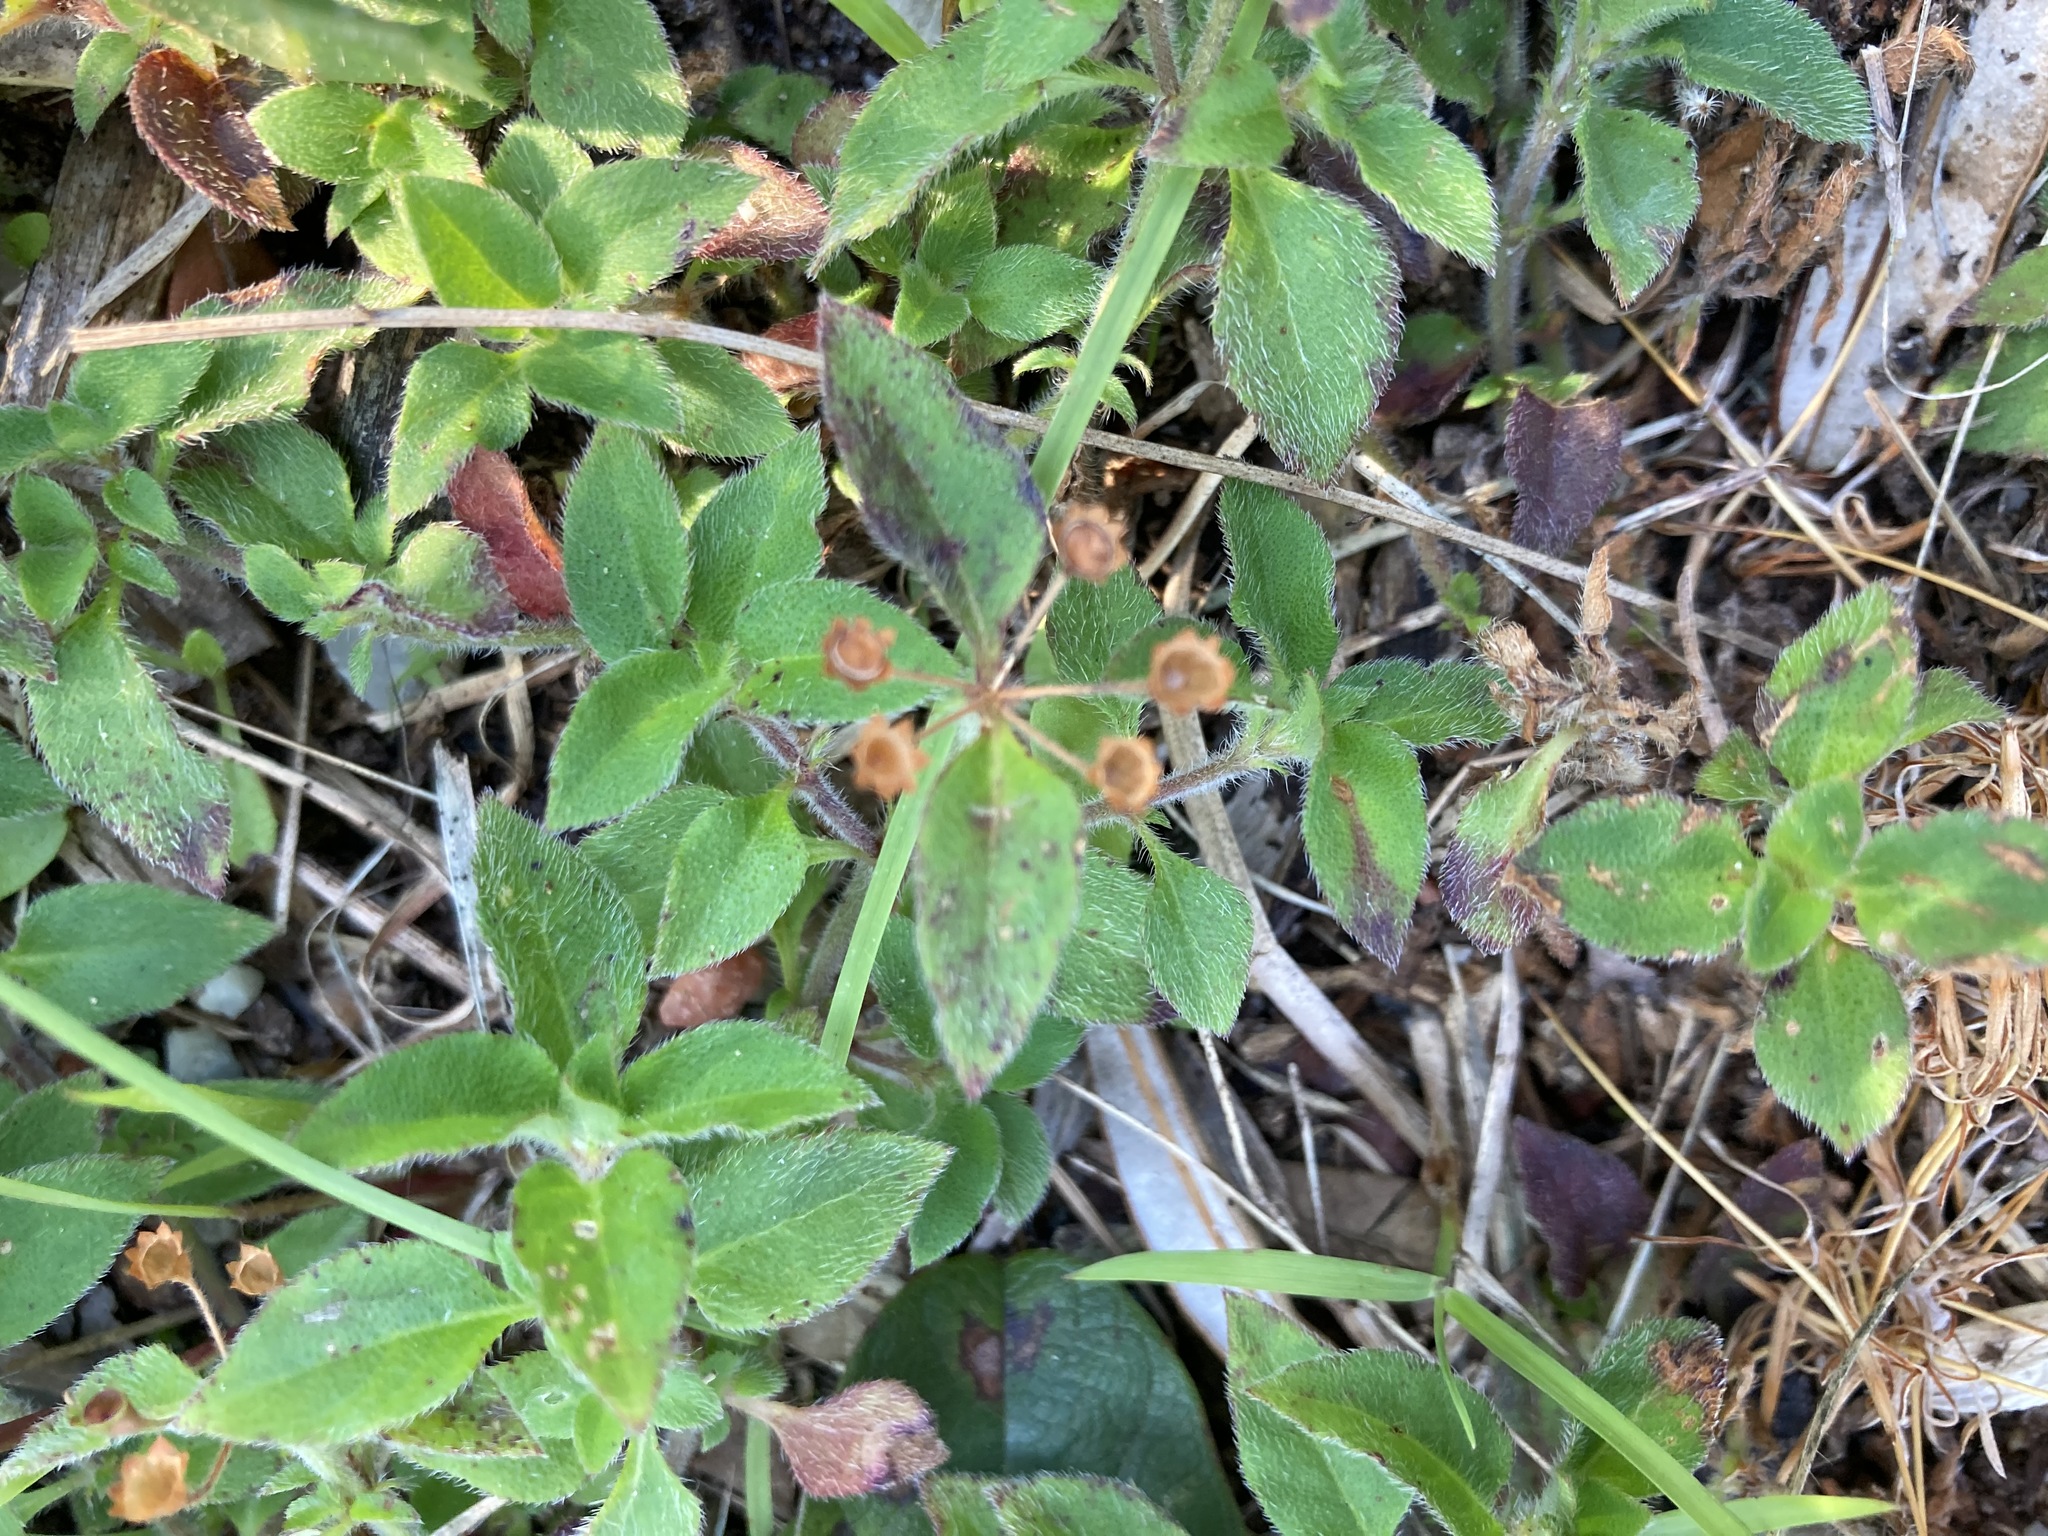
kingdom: Plantae
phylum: Tracheophyta
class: Magnoliopsida
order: Gentianales
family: Rubiaceae
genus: Pomax
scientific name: Pomax umbellata
